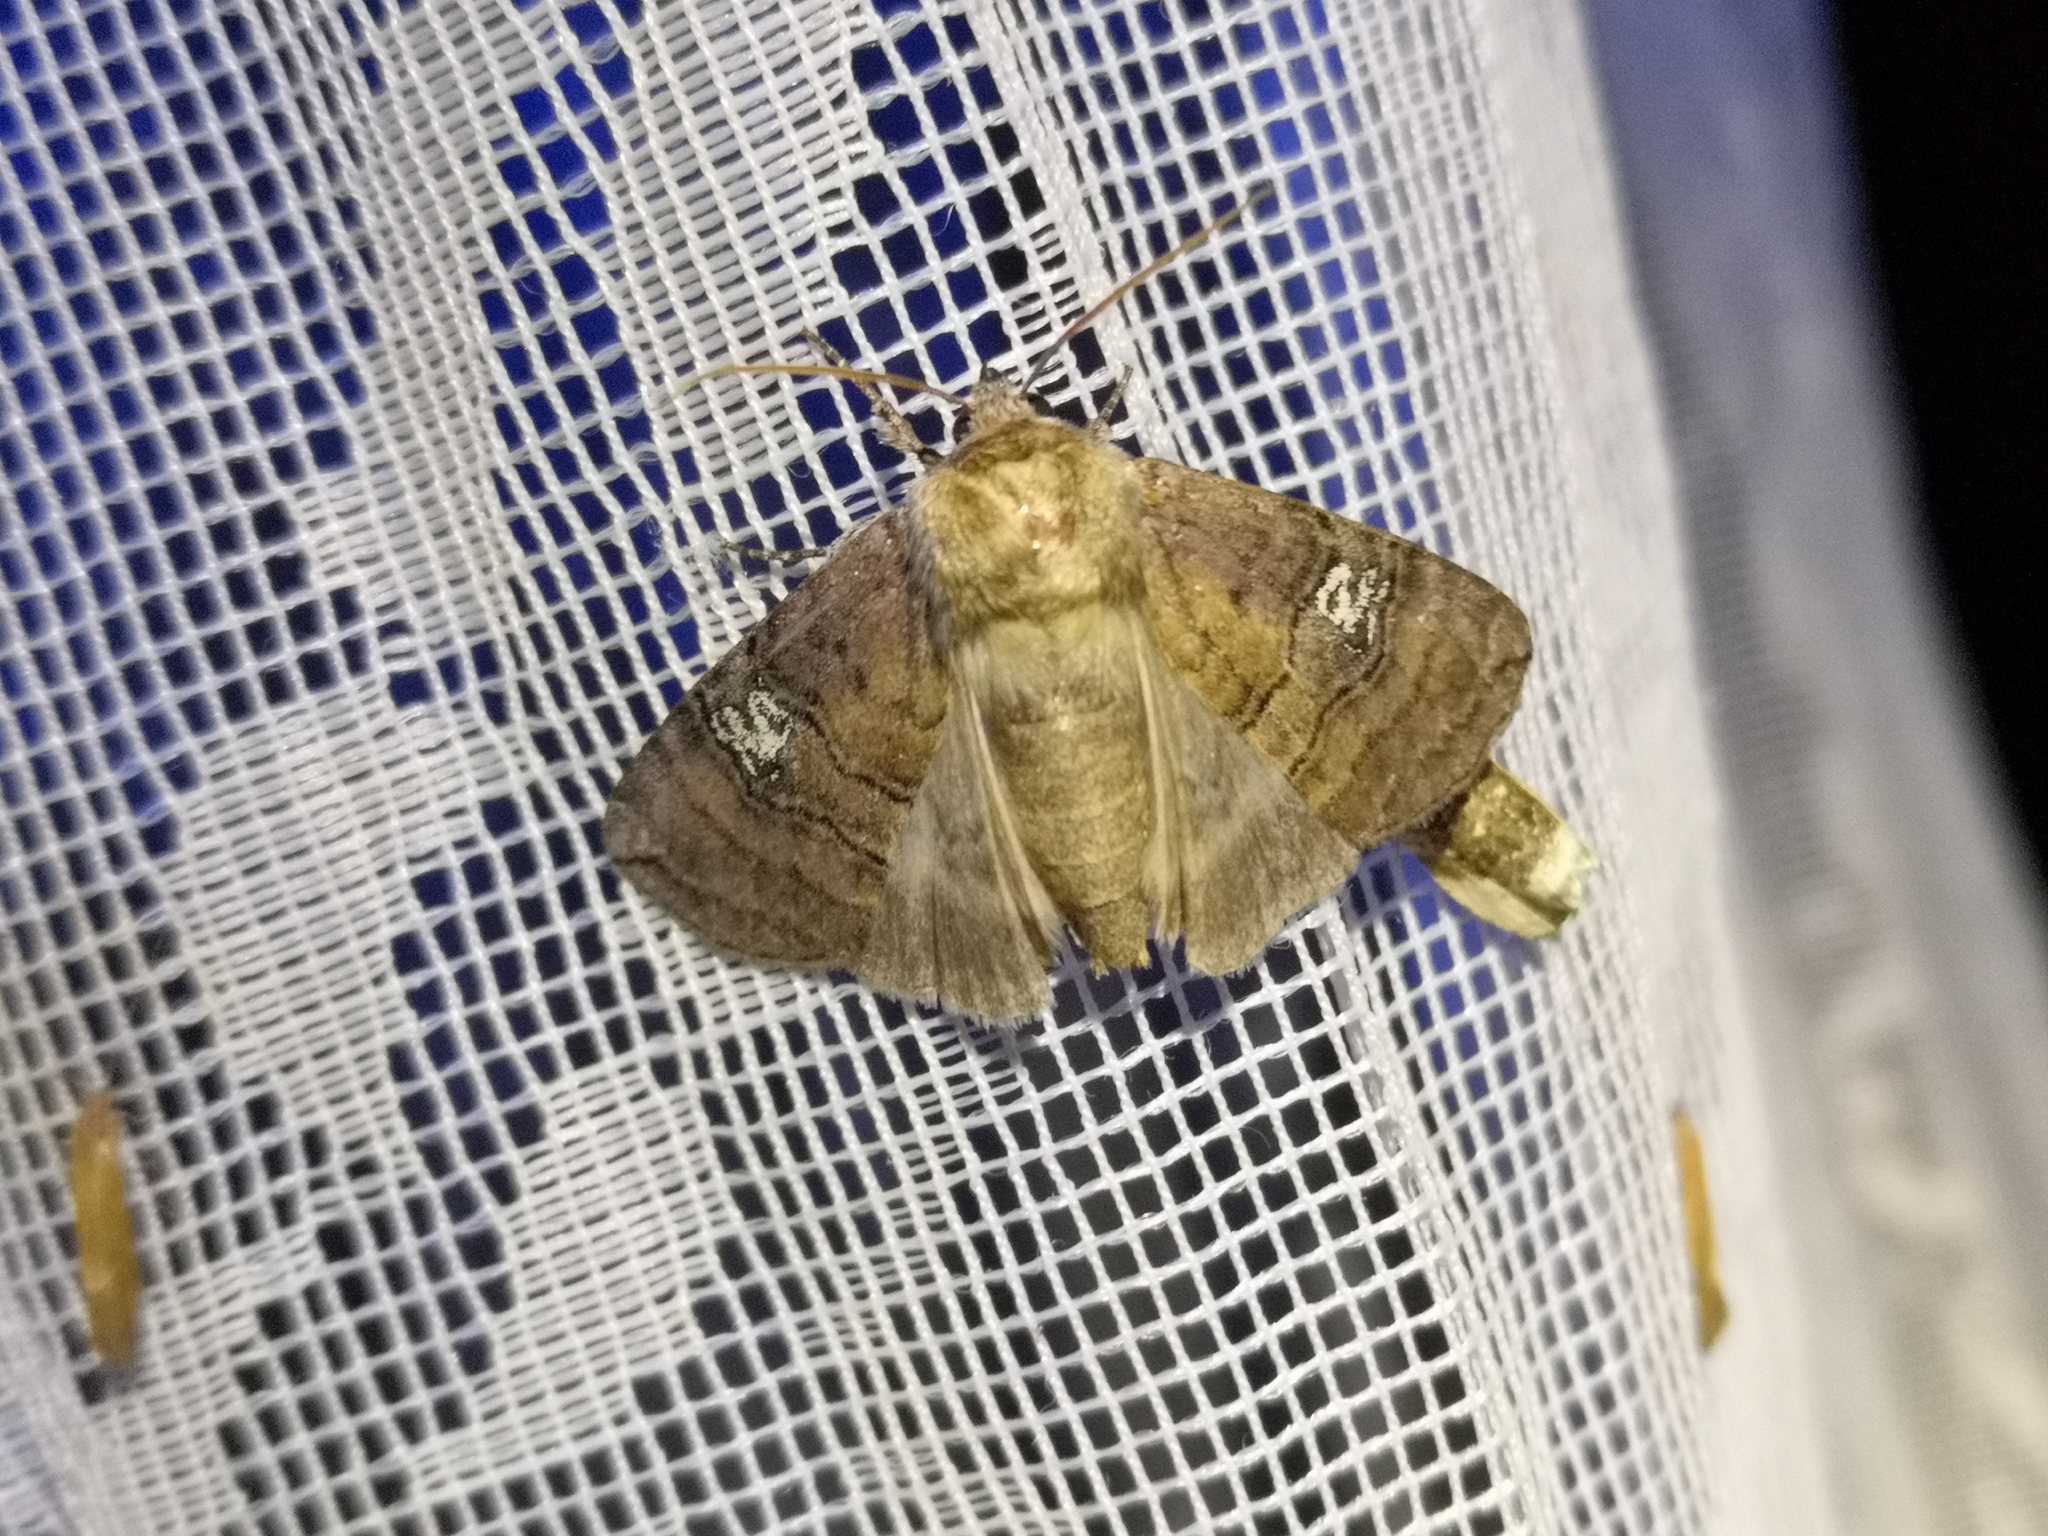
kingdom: Animalia
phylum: Arthropoda
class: Insecta
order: Lepidoptera
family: Drepanidae
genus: Tethea
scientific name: Tethea ocularis
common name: Figure of eighty
